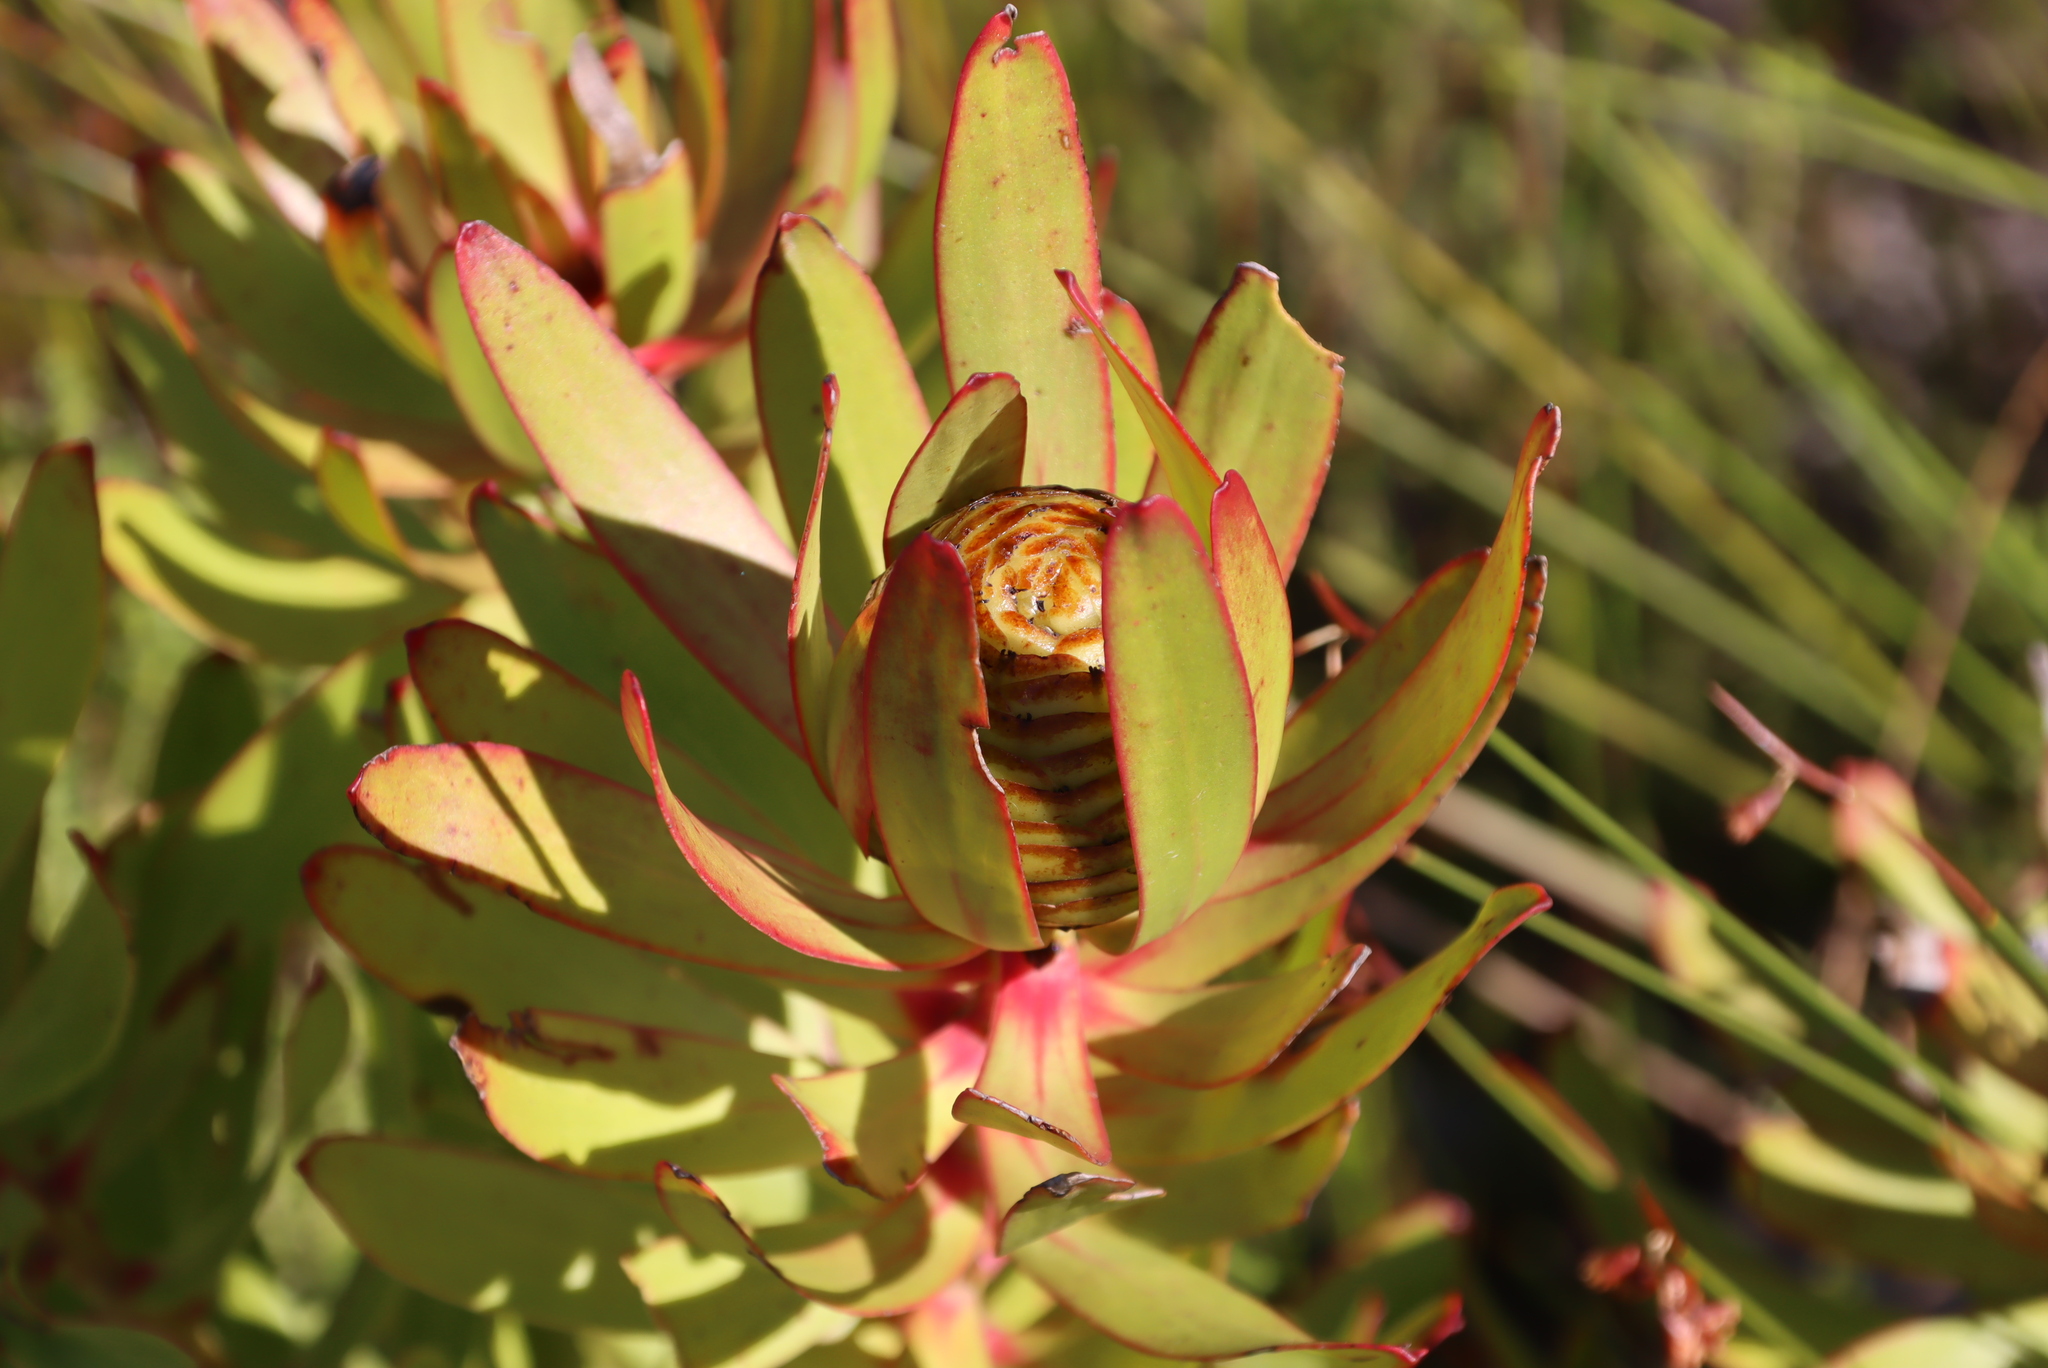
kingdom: Plantae
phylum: Tracheophyta
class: Magnoliopsida
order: Proteales
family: Proteaceae
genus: Leucadendron
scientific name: Leucadendron microcephalum
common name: Oilbract conebush
